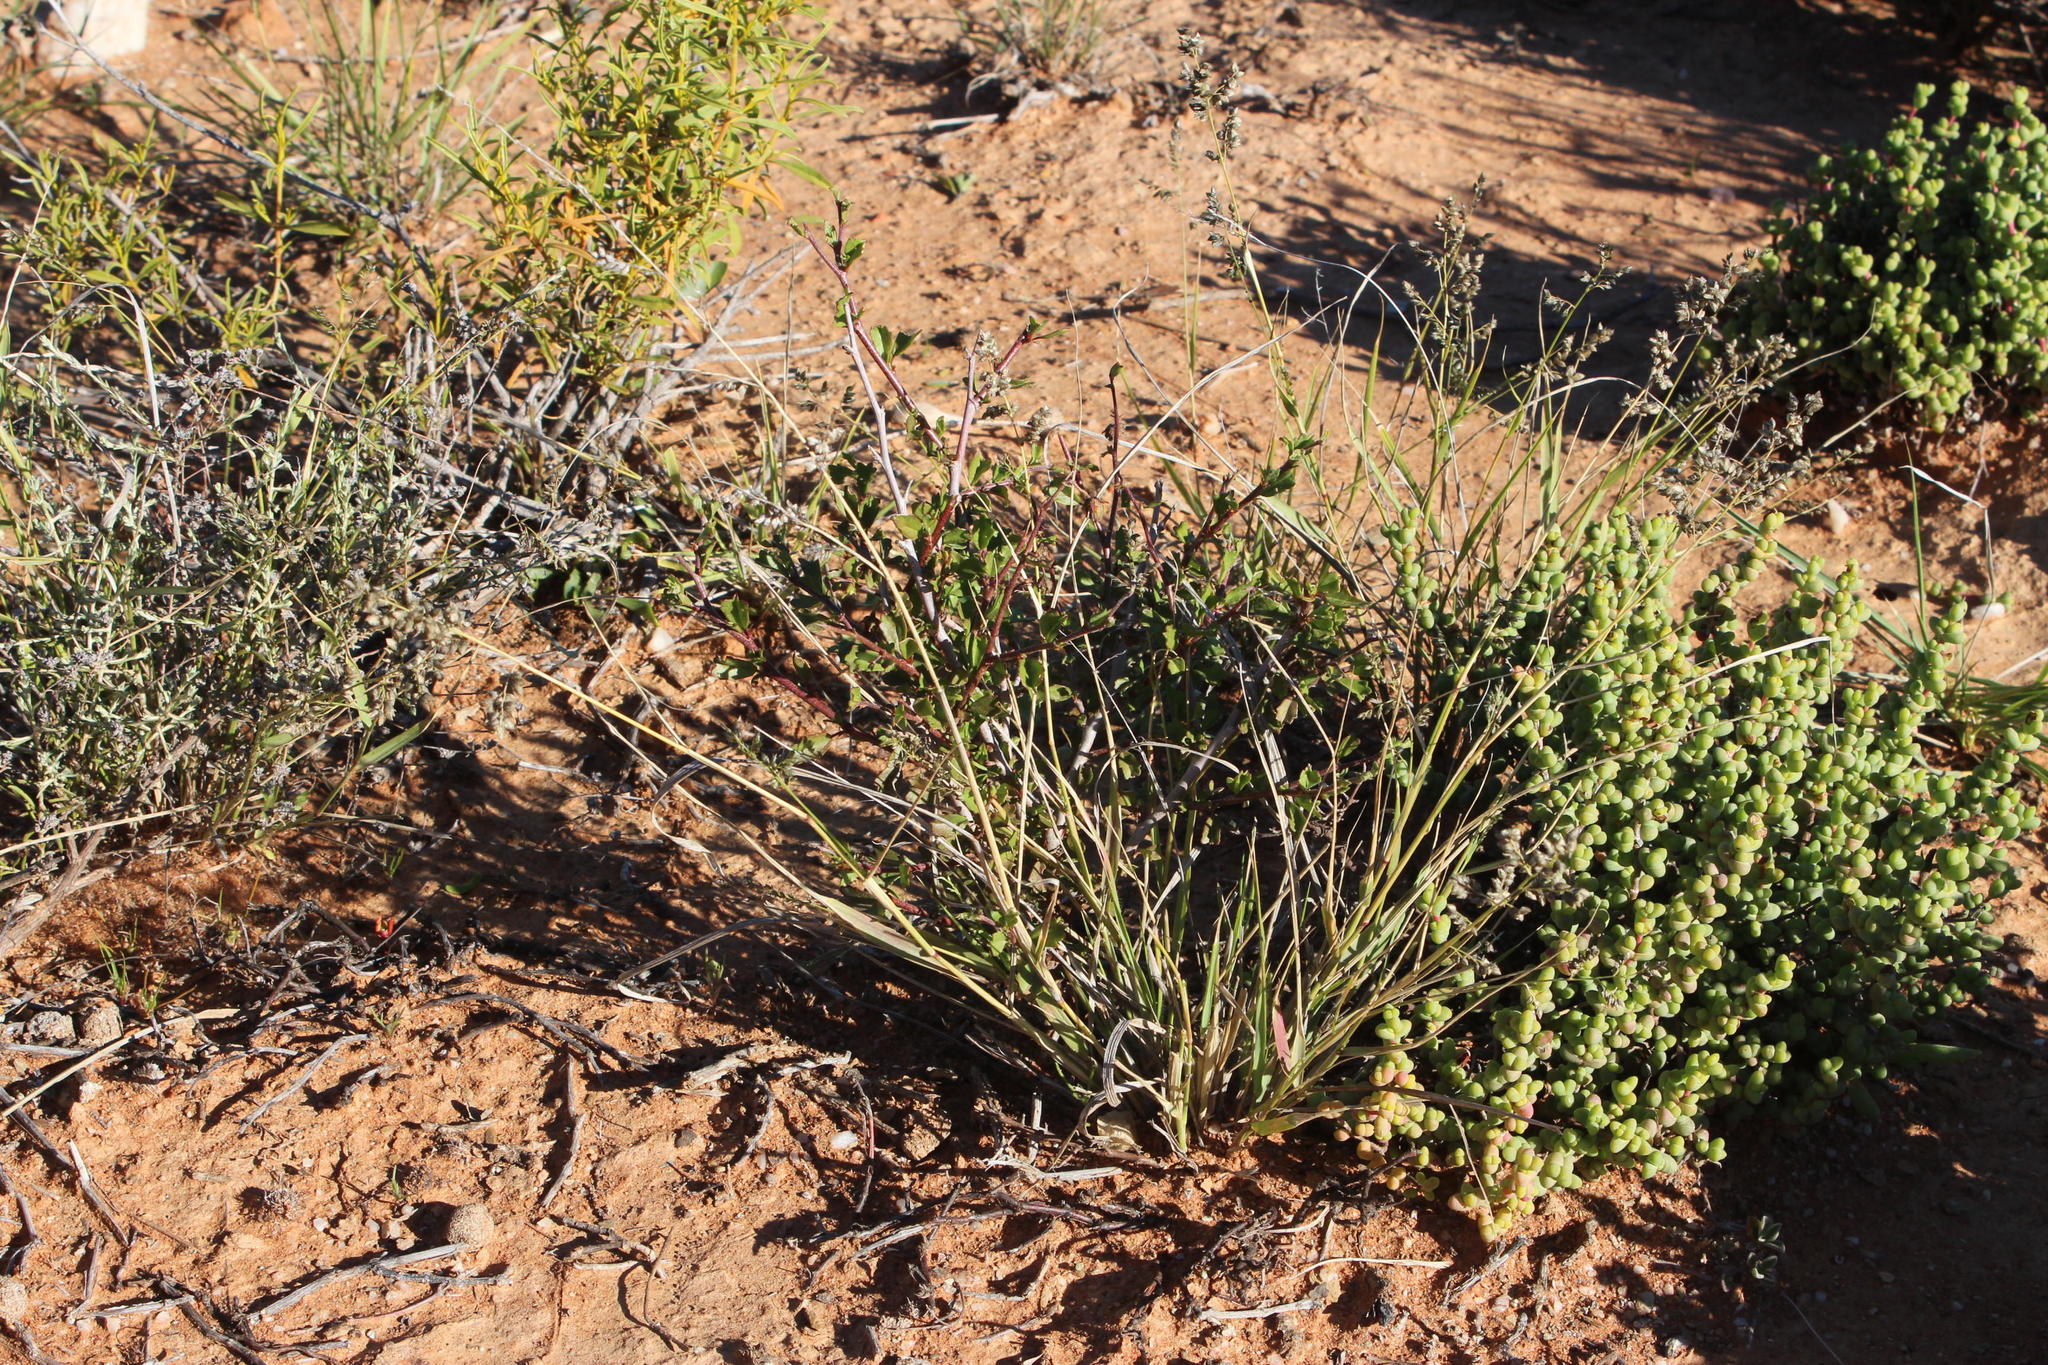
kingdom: Plantae
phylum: Tracheophyta
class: Liliopsida
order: Poales
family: Poaceae
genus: Eragrostis
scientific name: Eragrostis echinochloidea
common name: African lovegrass
